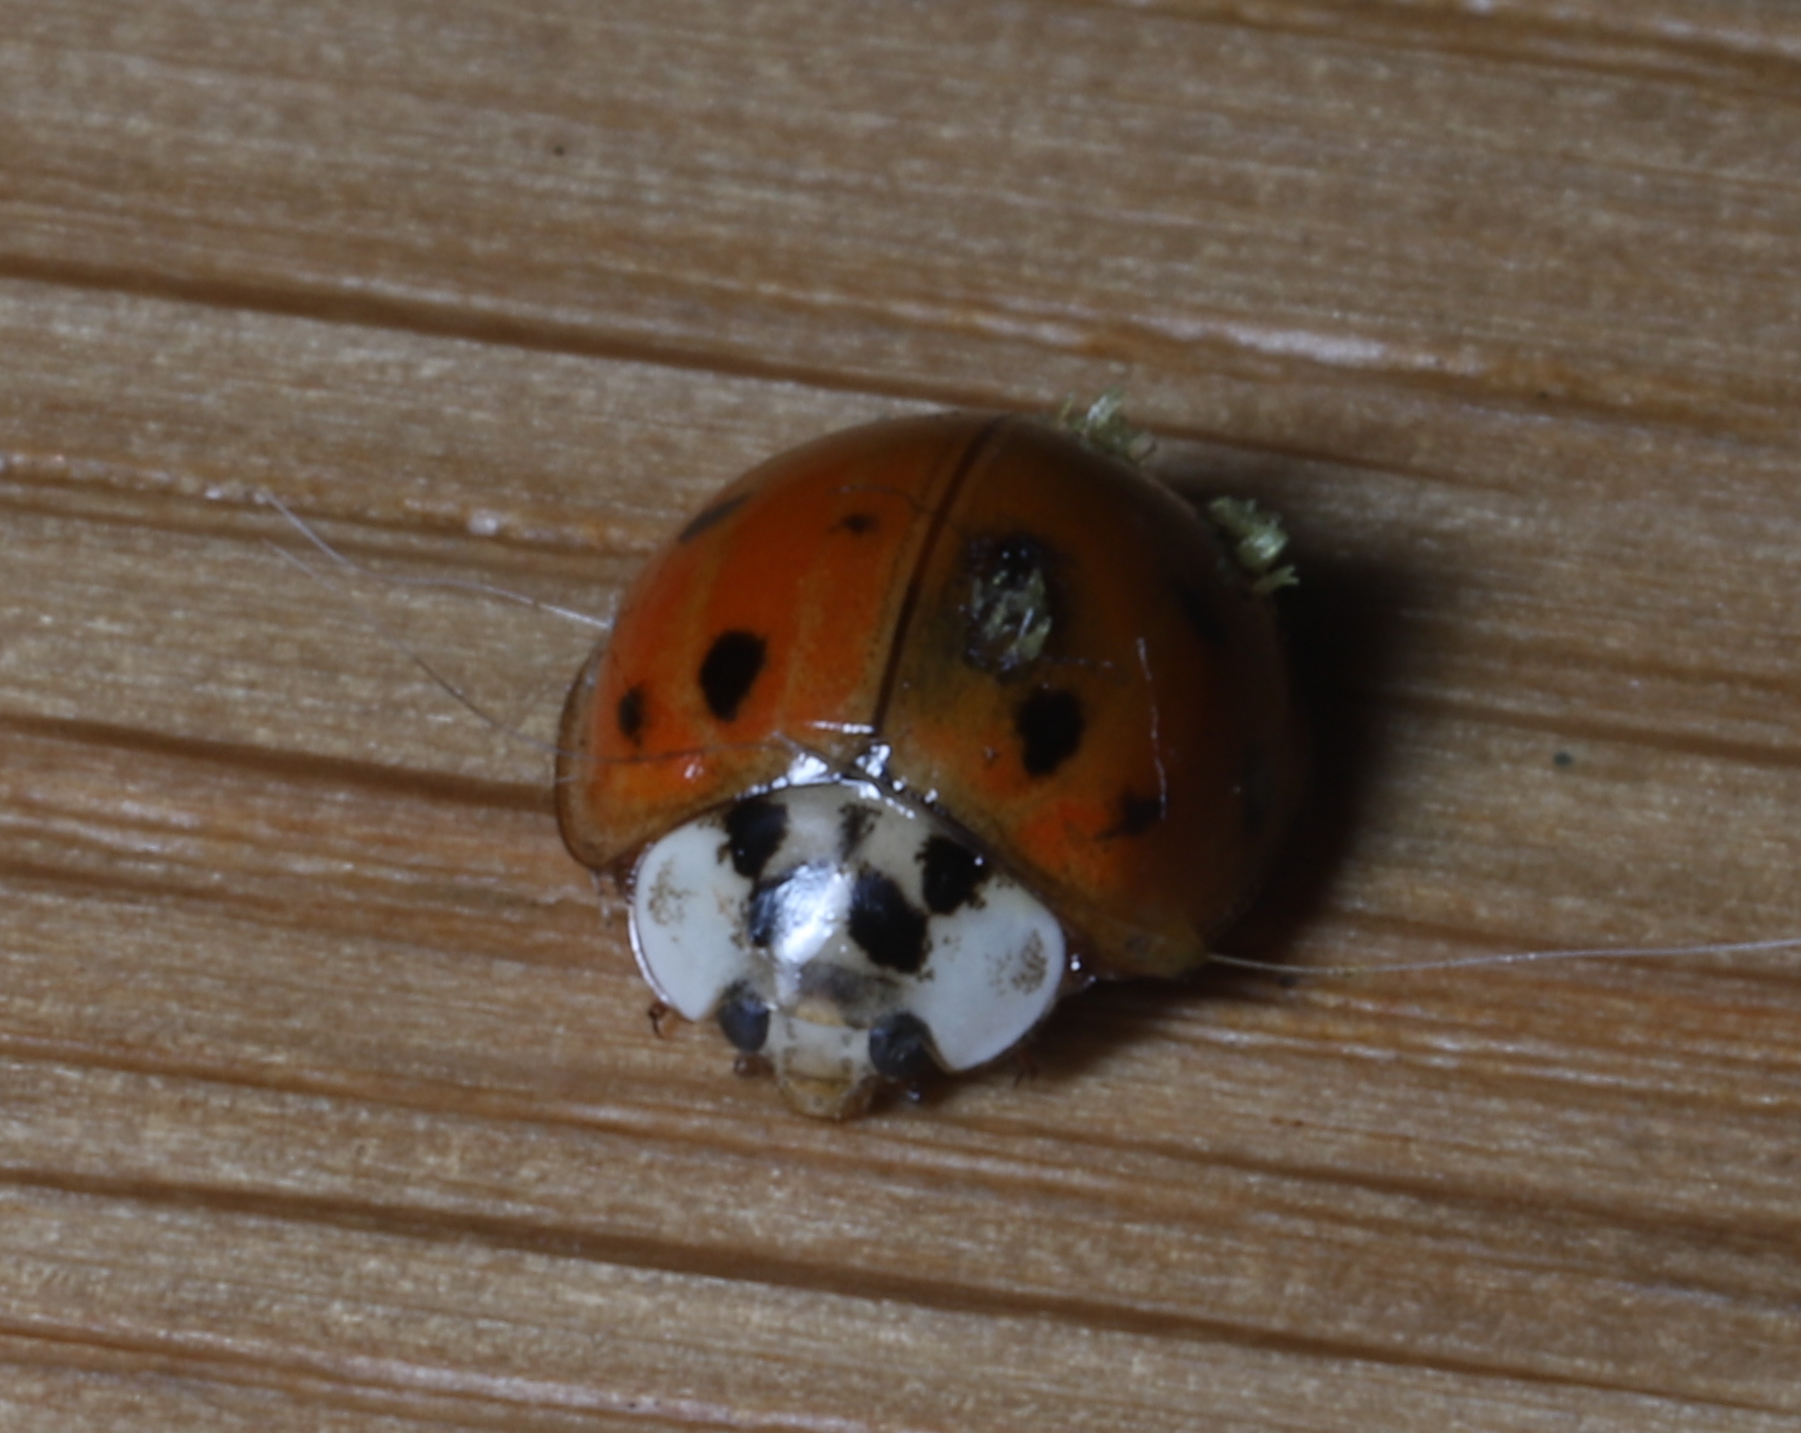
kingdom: Animalia
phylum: Arthropoda
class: Insecta
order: Coleoptera
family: Coccinellidae
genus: Harmonia
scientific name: Harmonia axyridis
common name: Harlequin ladybird
